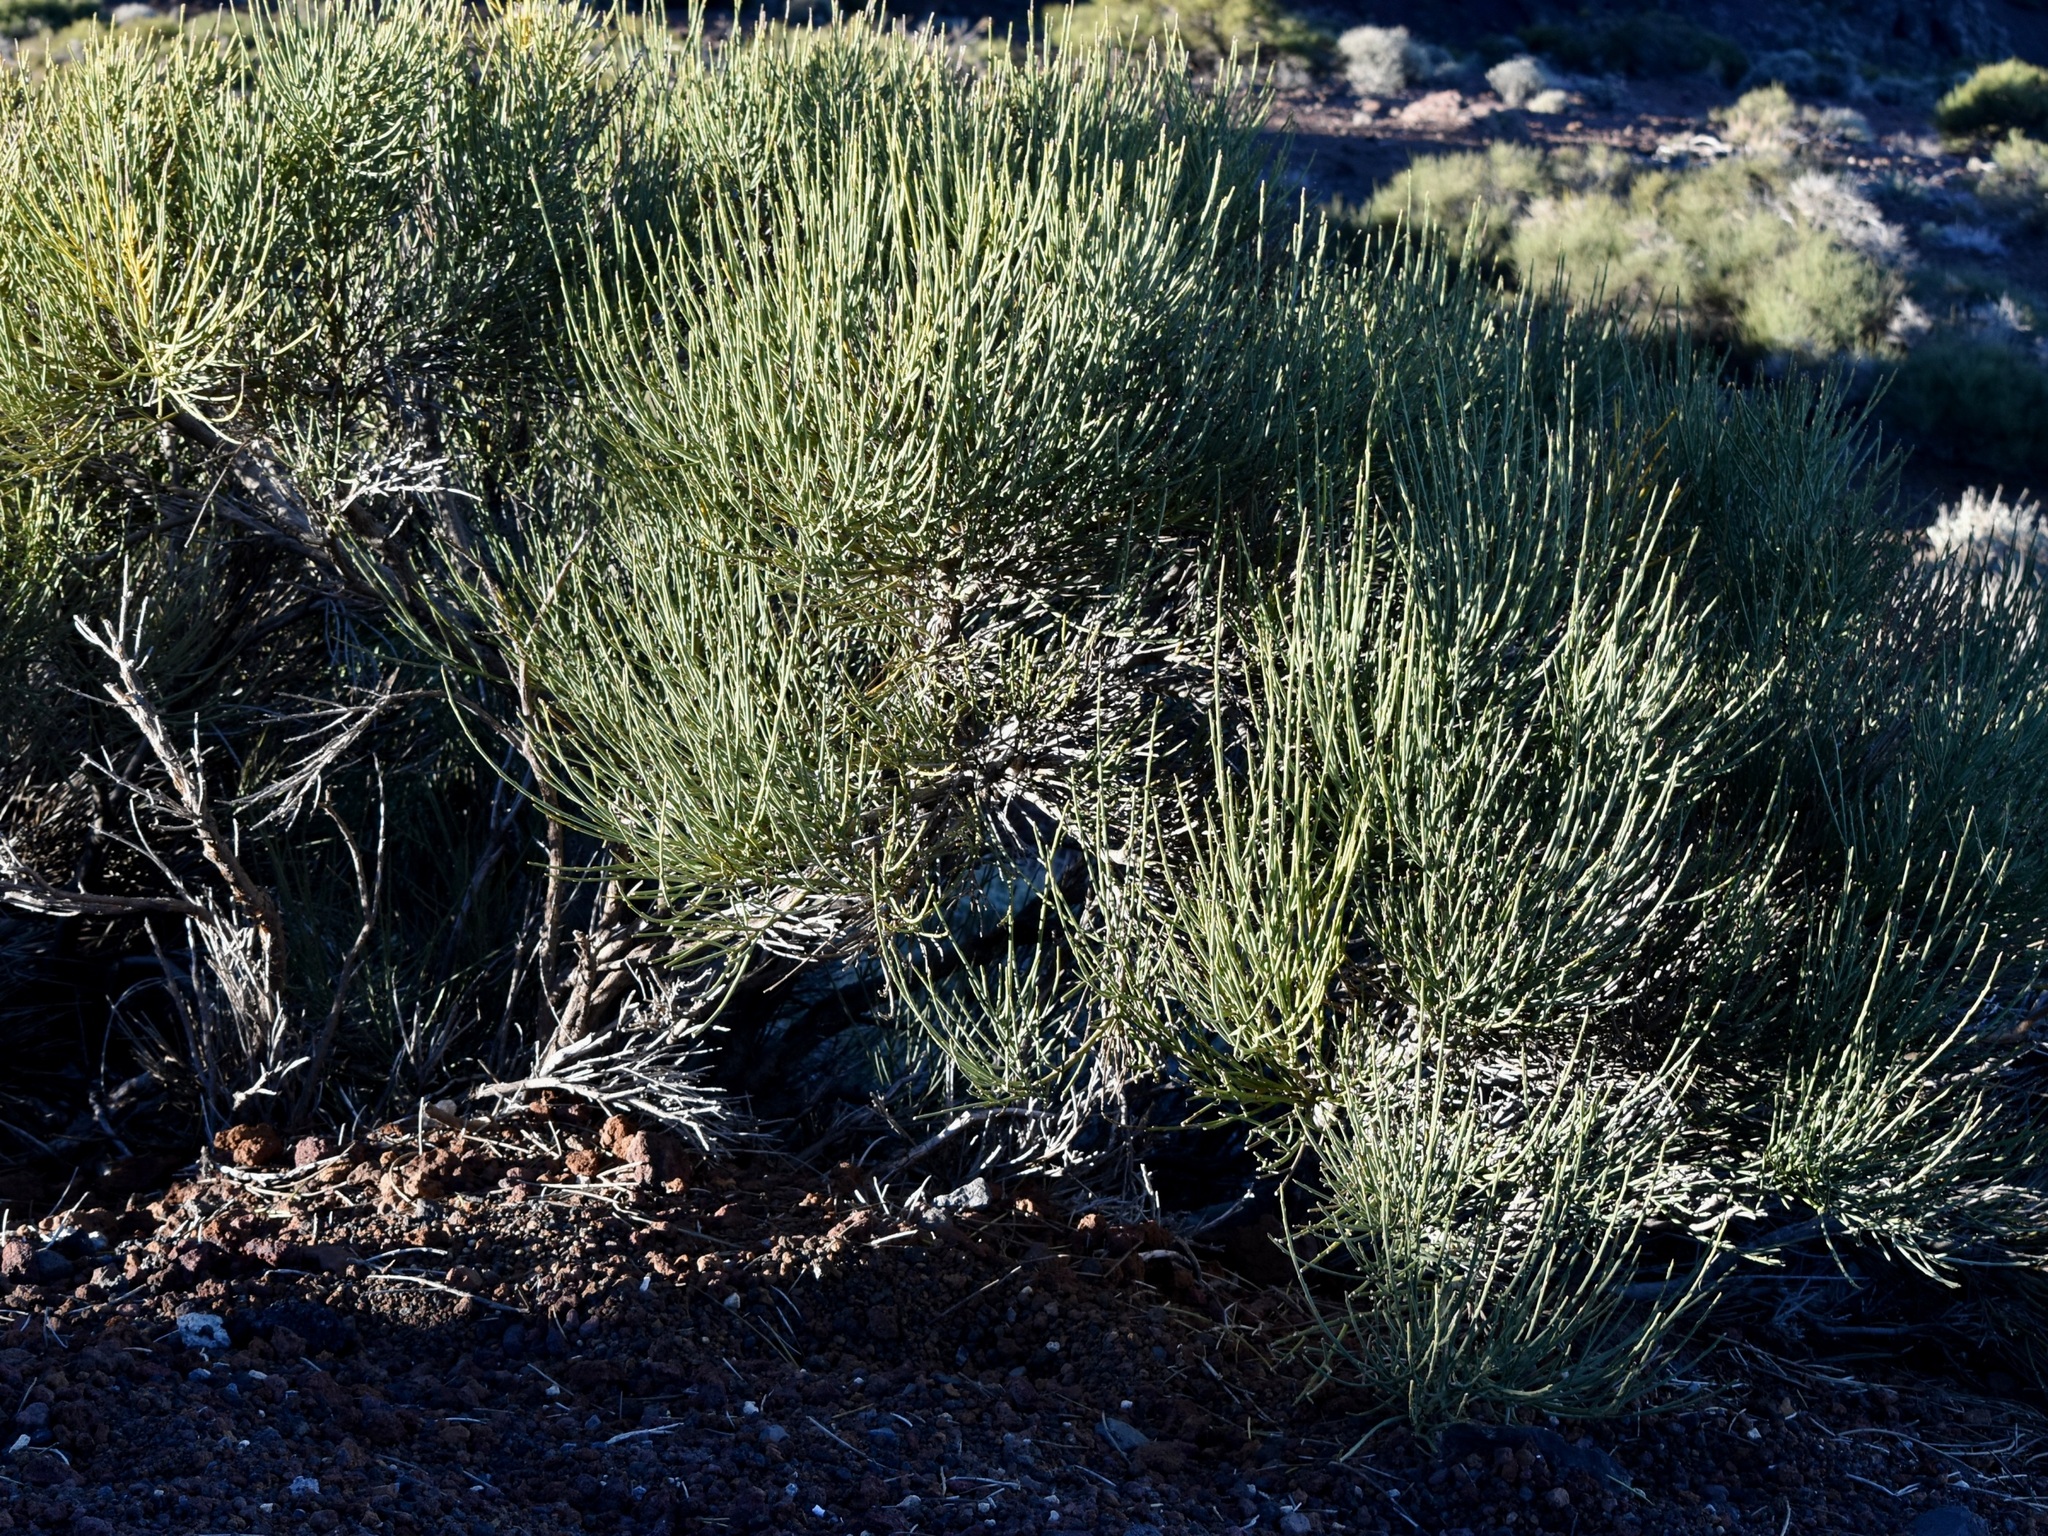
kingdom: Plantae
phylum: Tracheophyta
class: Magnoliopsida
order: Fabales
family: Fabaceae
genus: Cytisus
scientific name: Cytisus supranubius
